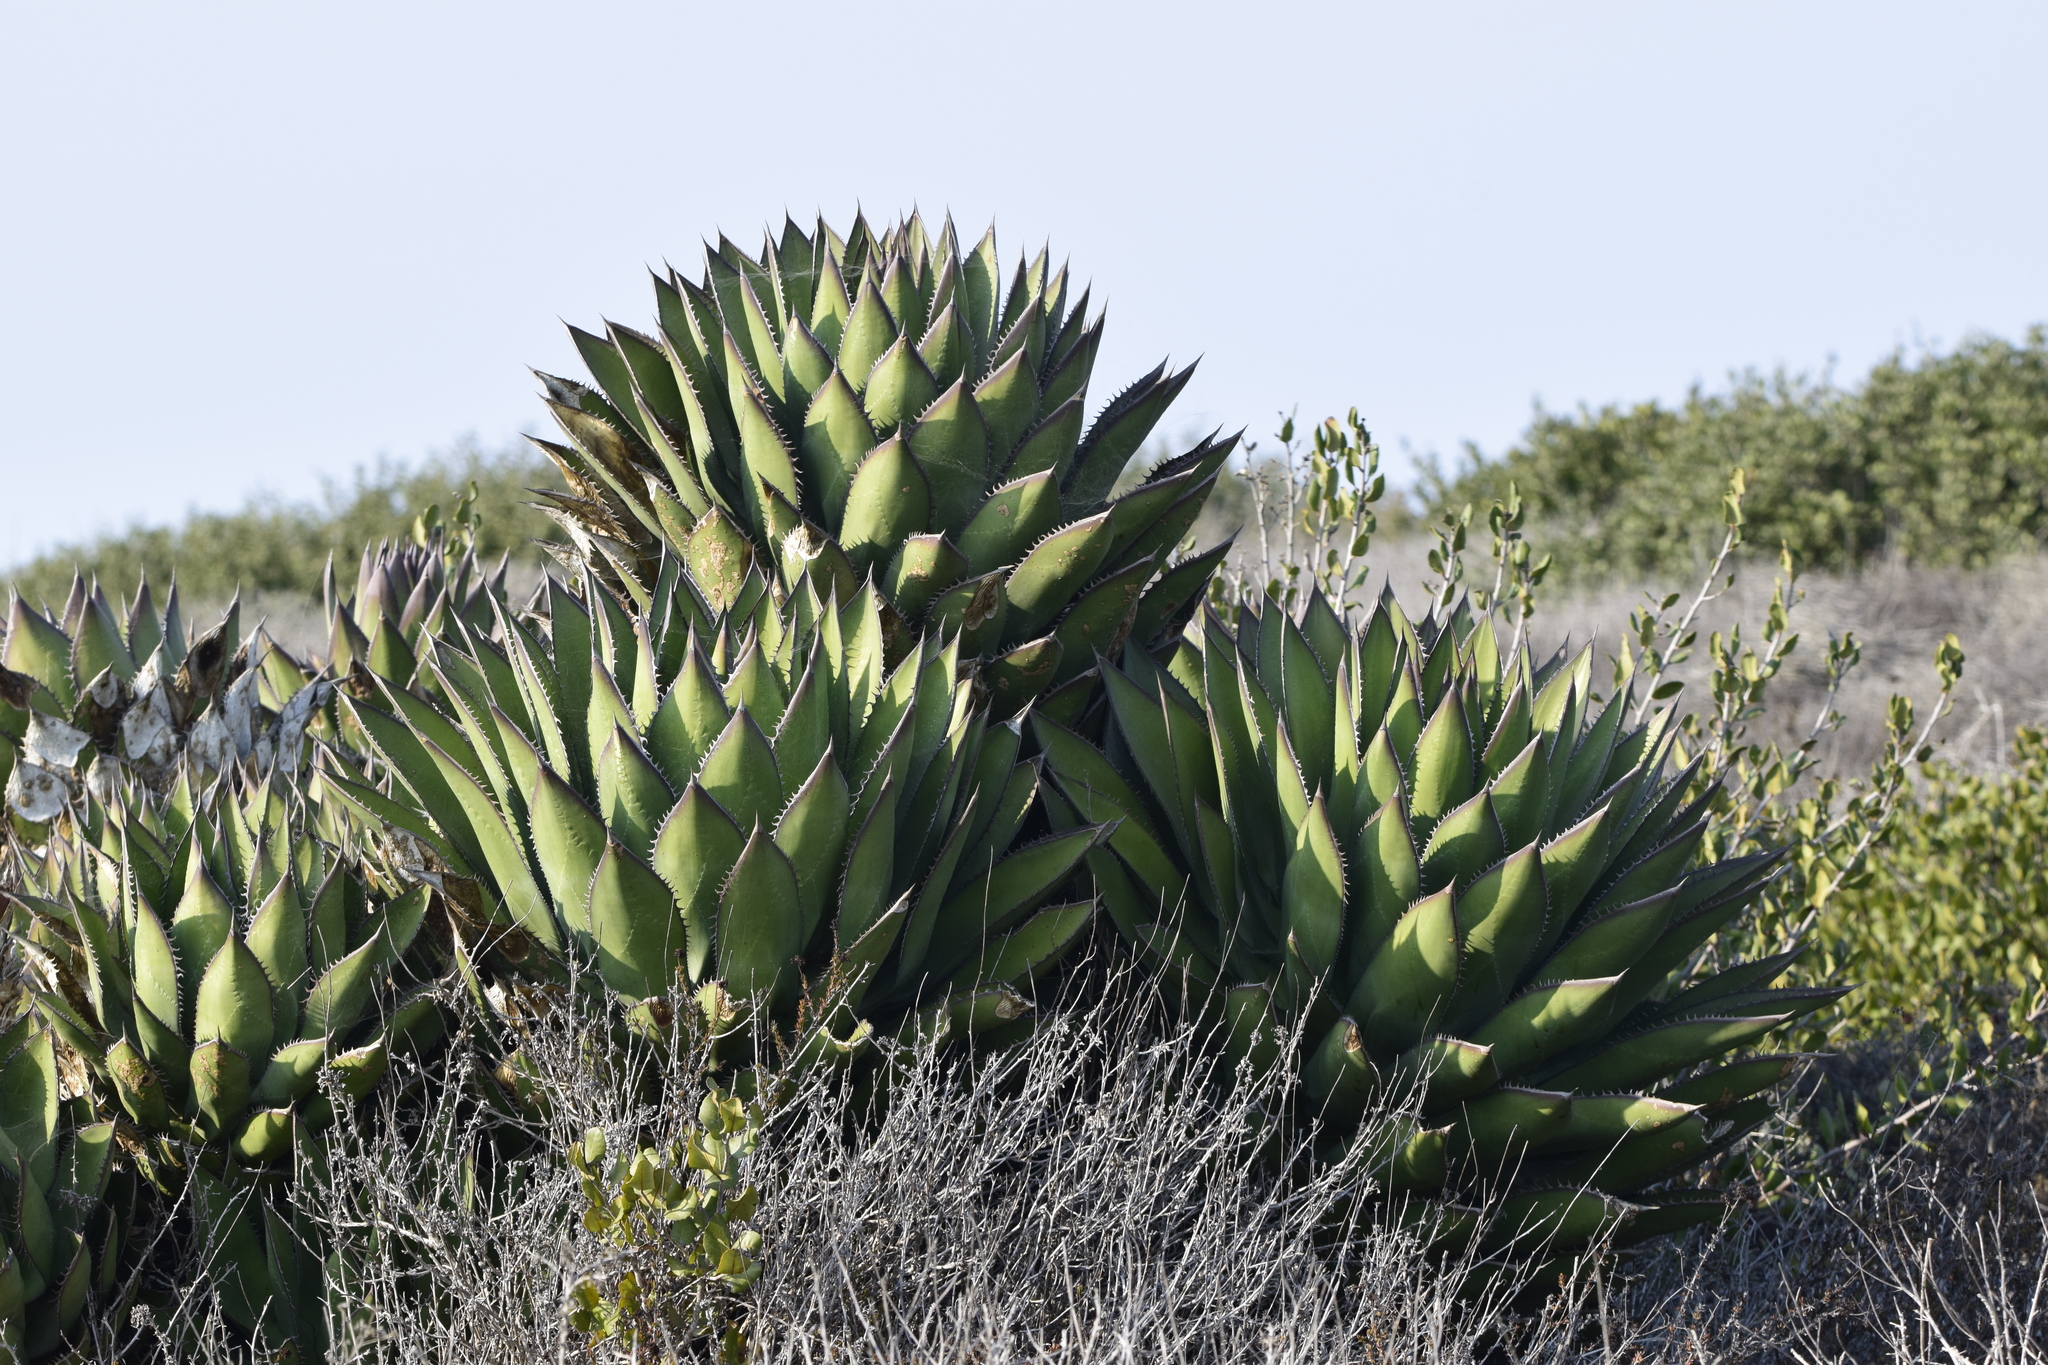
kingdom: Plantae
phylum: Tracheophyta
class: Liliopsida
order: Asparagales
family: Asparagaceae
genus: Agave
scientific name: Agave shawii
